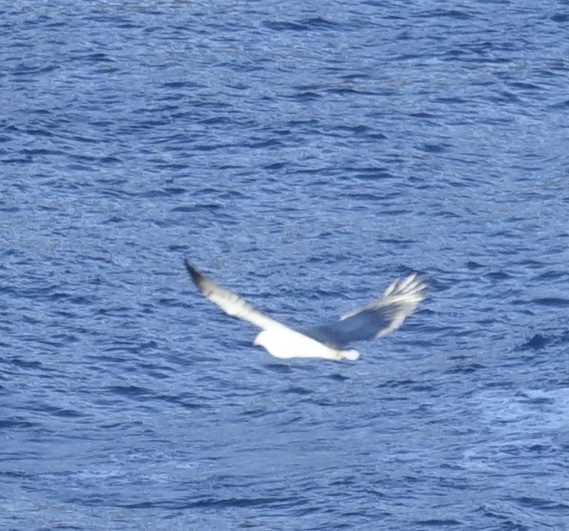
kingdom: Animalia
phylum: Chordata
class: Aves
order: Accipitriformes
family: Accipitridae
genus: Haliaeetus
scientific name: Haliaeetus leucogaster
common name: White-bellied sea eagle
